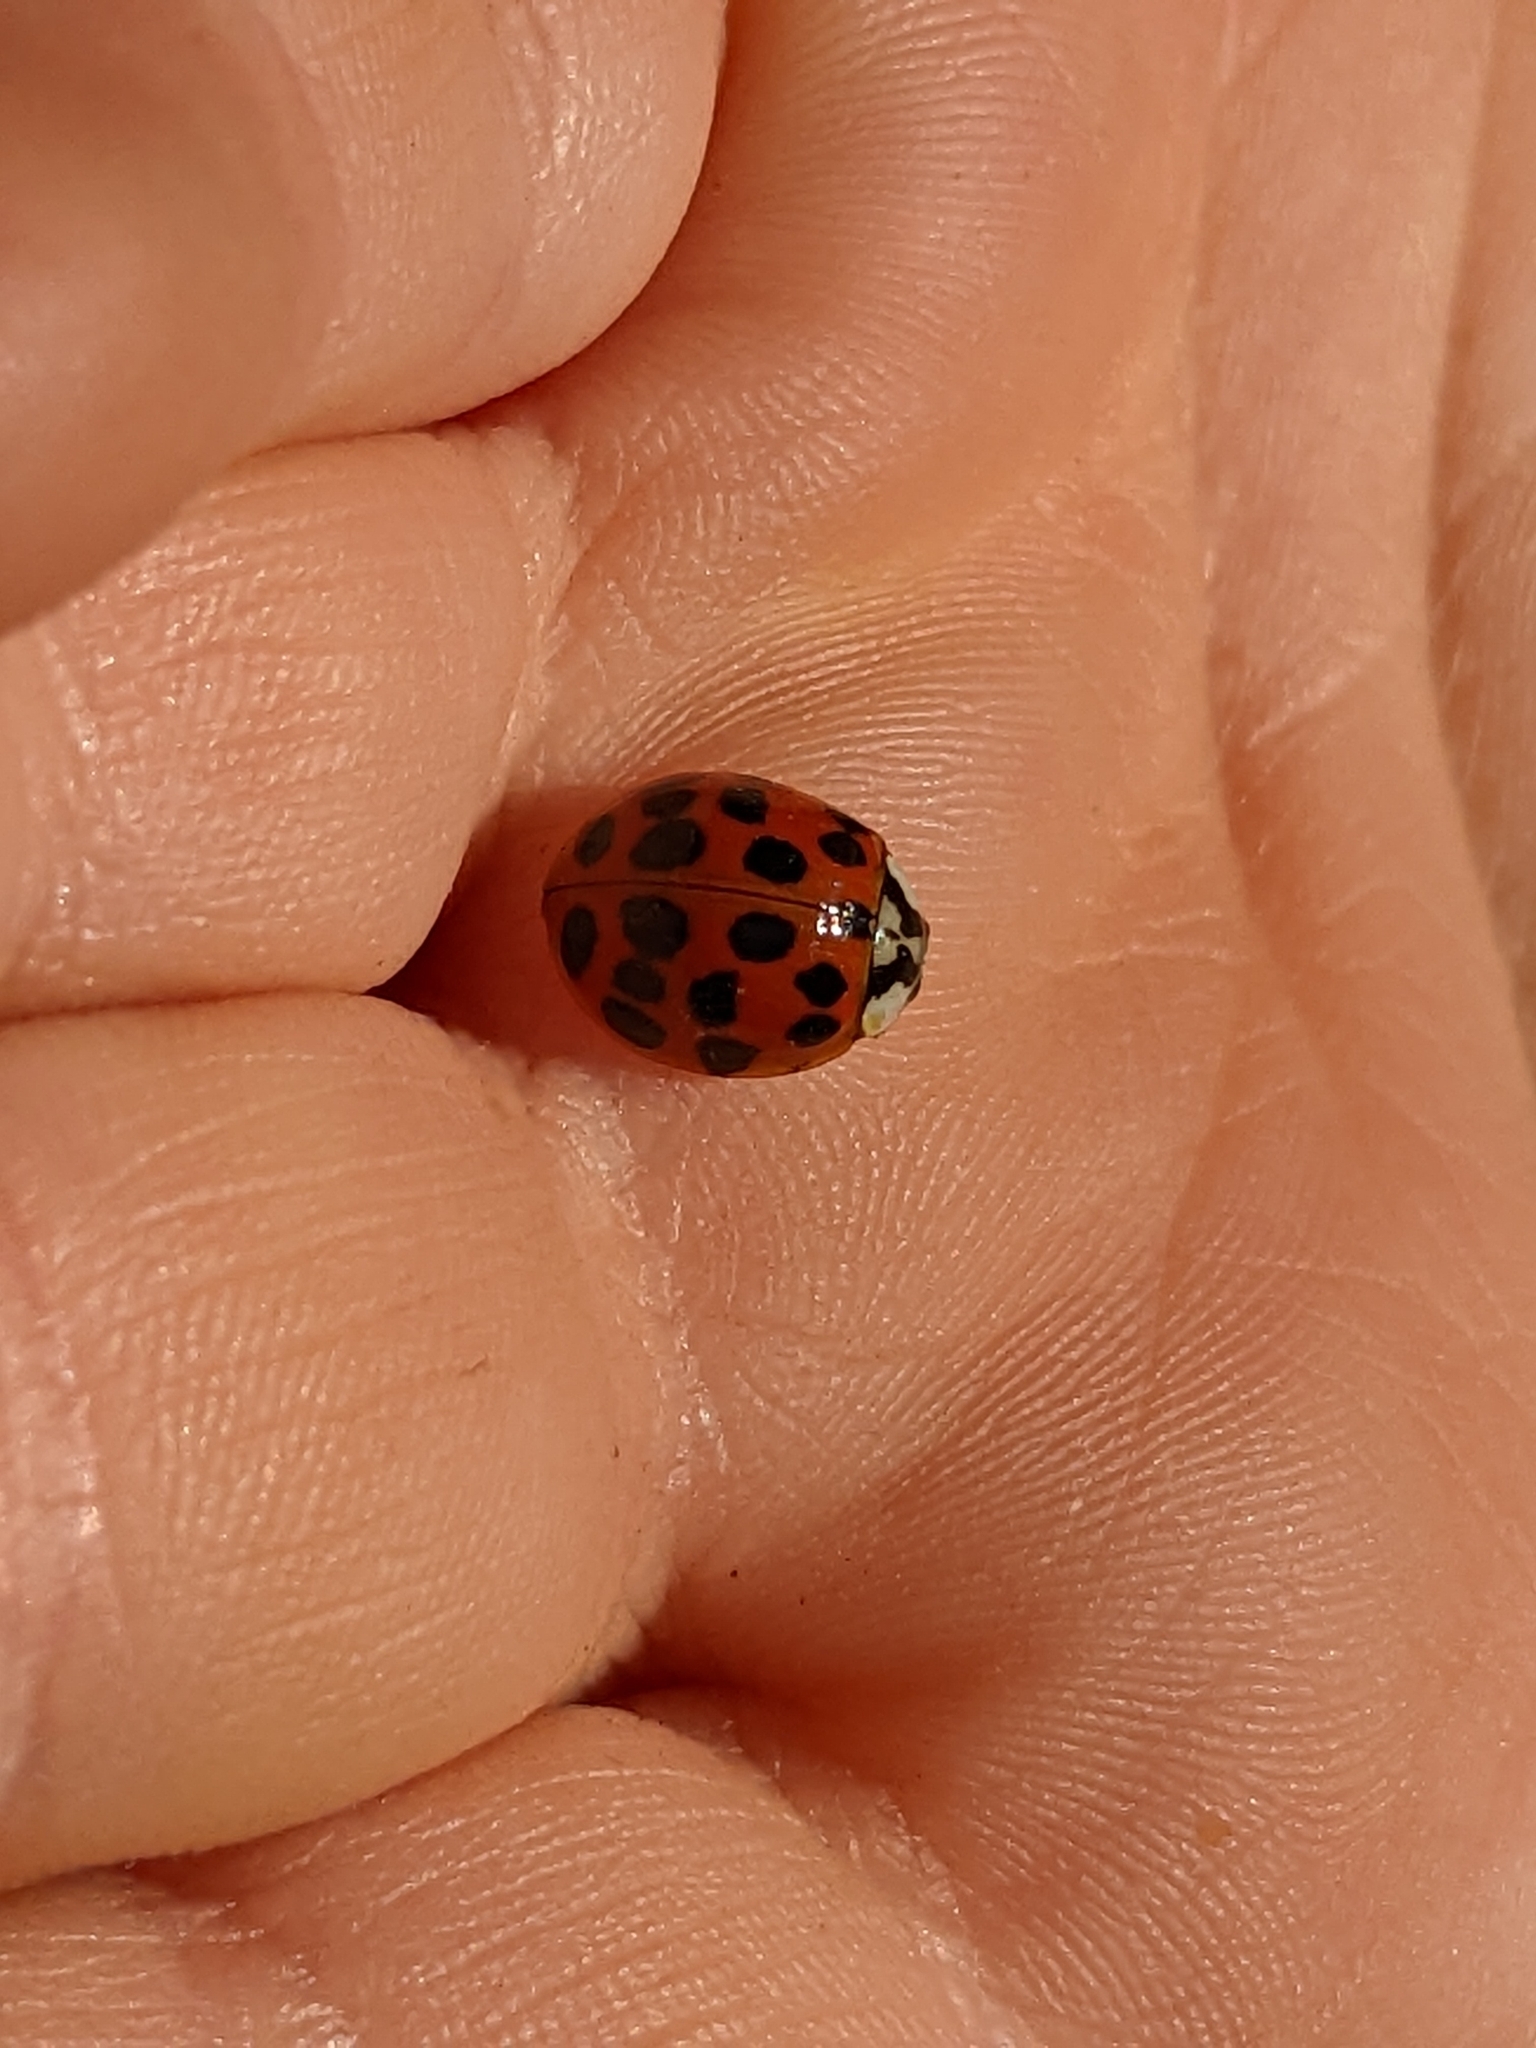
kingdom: Animalia
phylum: Arthropoda
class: Insecta
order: Coleoptera
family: Coccinellidae
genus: Harmonia
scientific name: Harmonia axyridis
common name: Harlequin ladybird
